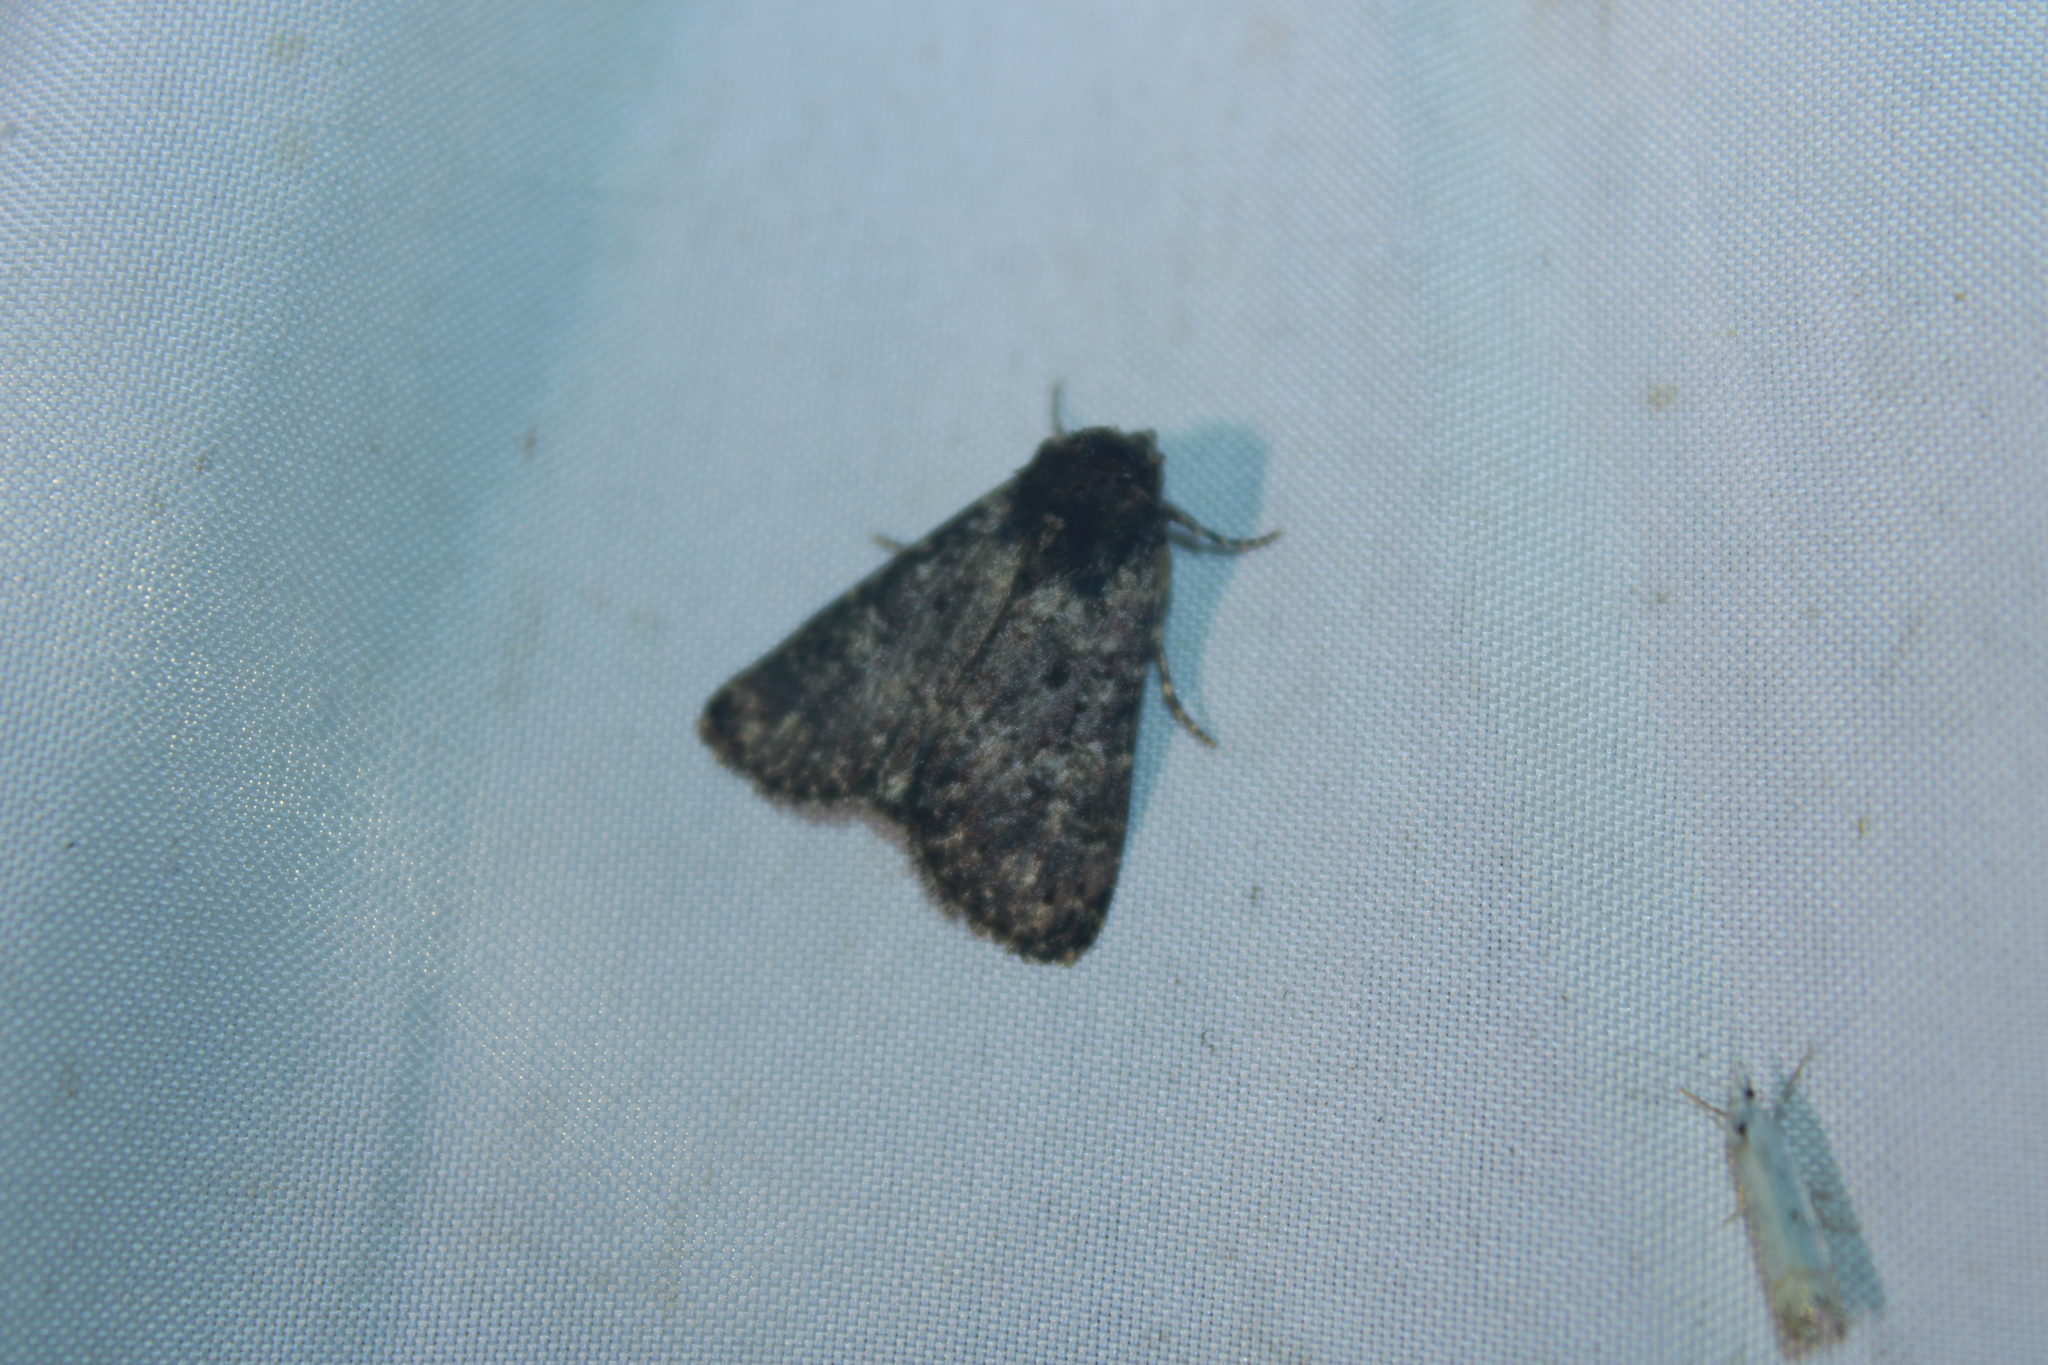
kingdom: Animalia
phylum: Arthropoda
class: Insecta
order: Lepidoptera
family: Noctuidae
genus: Condica
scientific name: Condica vecors
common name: Dusky groundling
